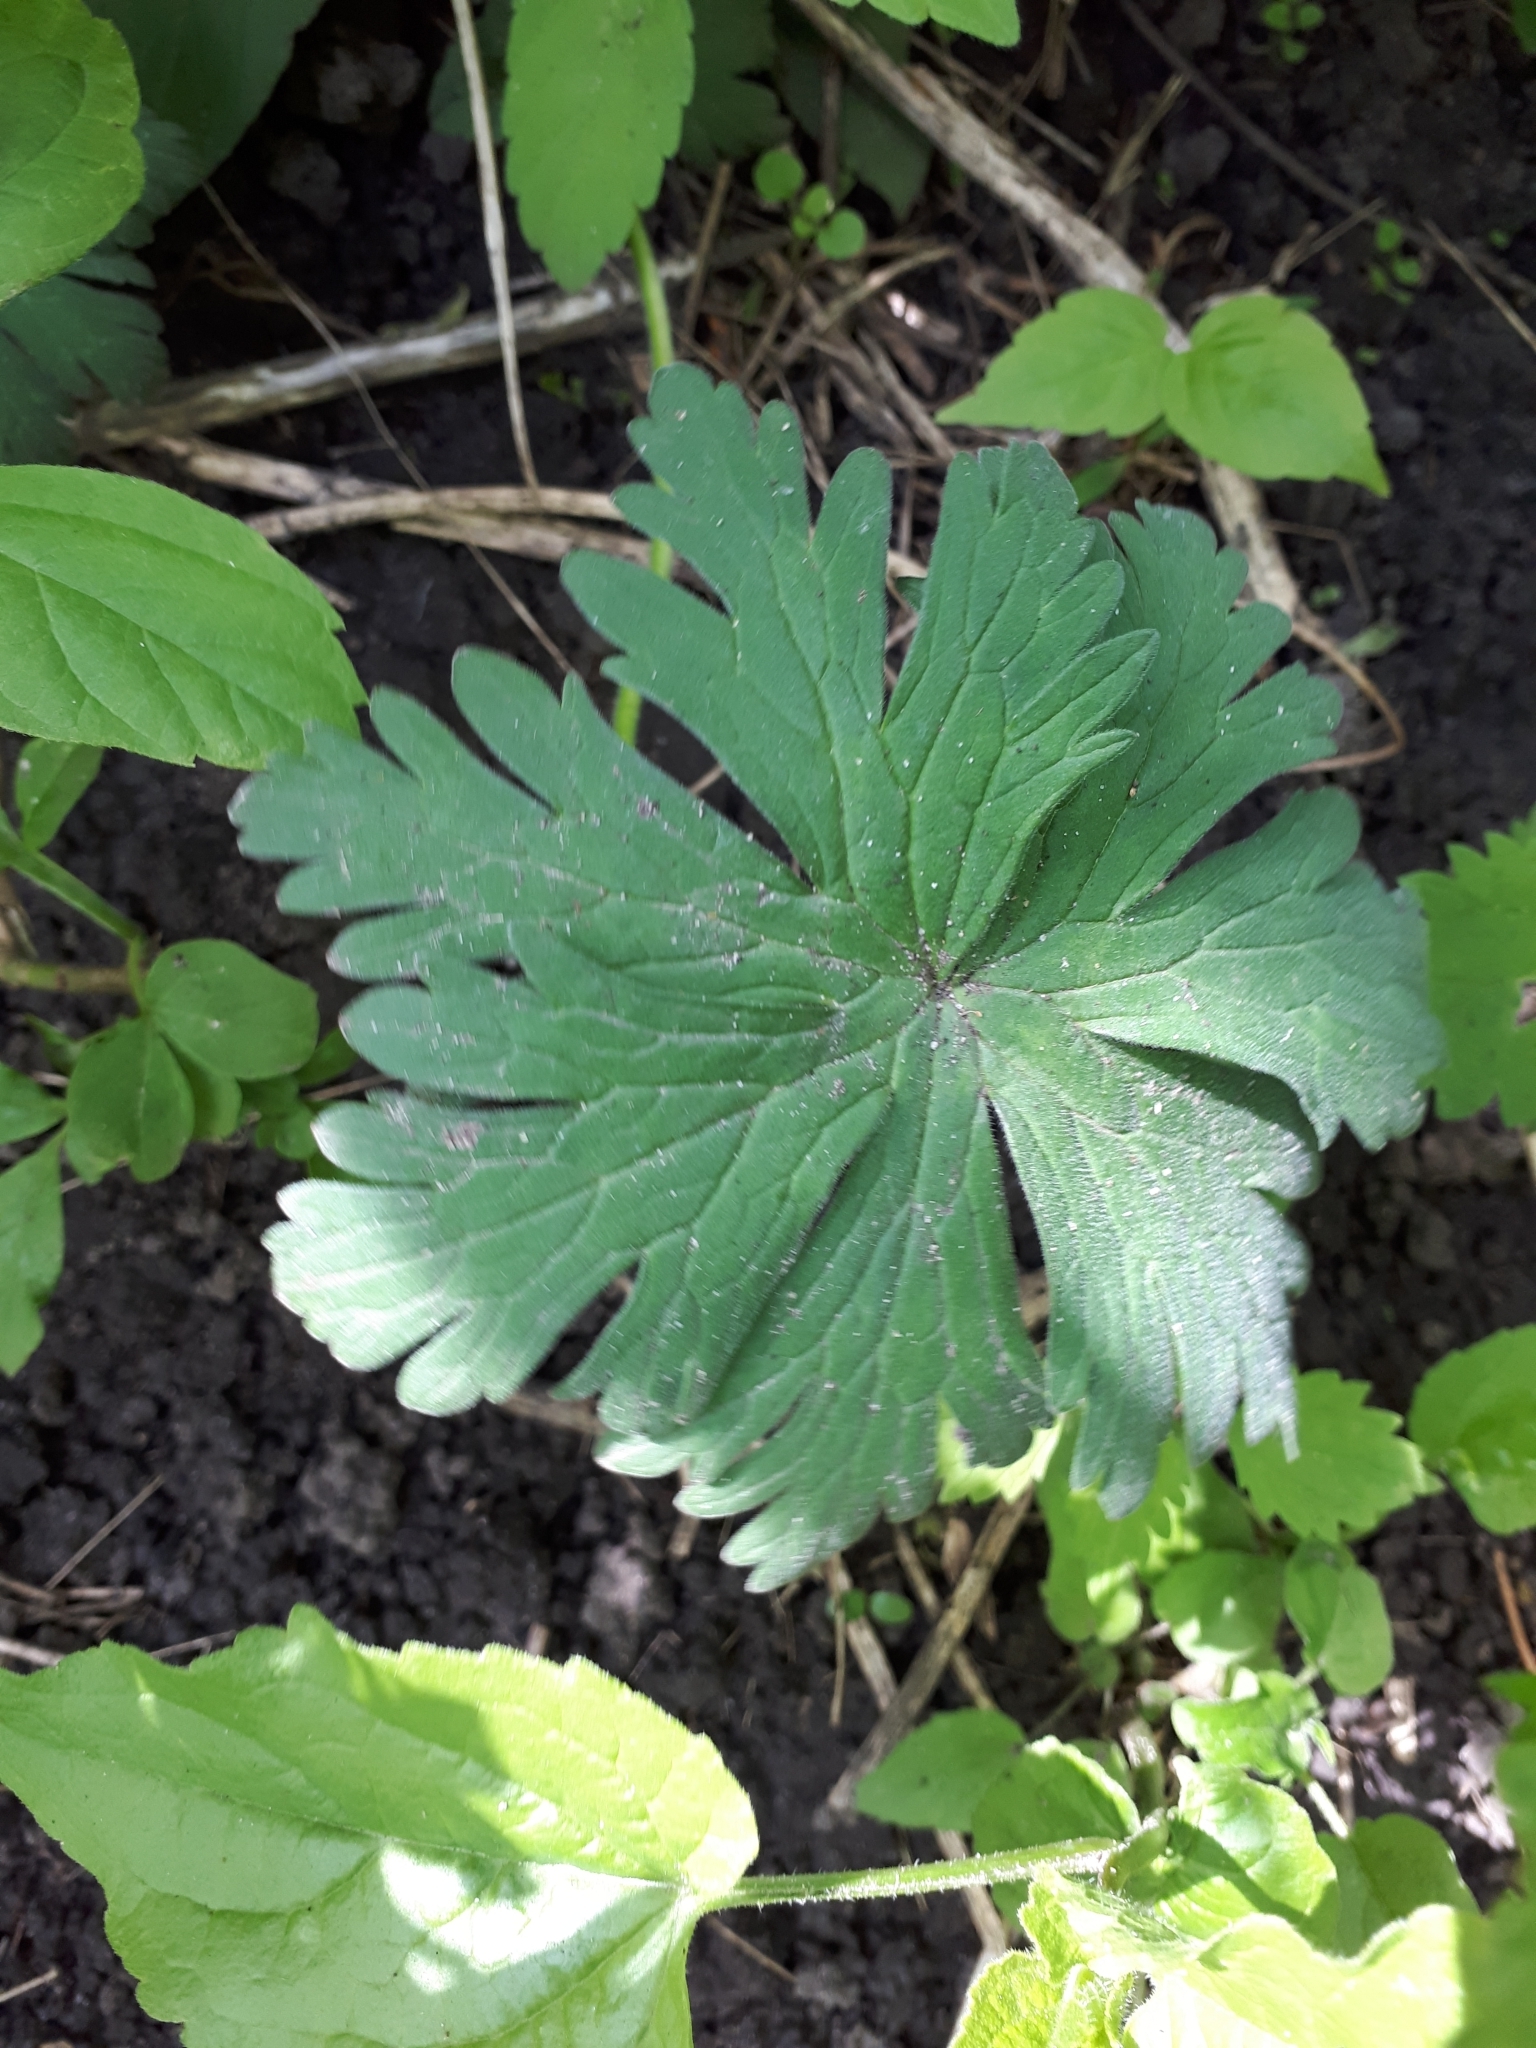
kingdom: Plantae
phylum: Tracheophyta
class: Magnoliopsida
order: Geraniales
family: Geraniaceae
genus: Geranium
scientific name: Geranium pratense
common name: Meadow crane's-bill
